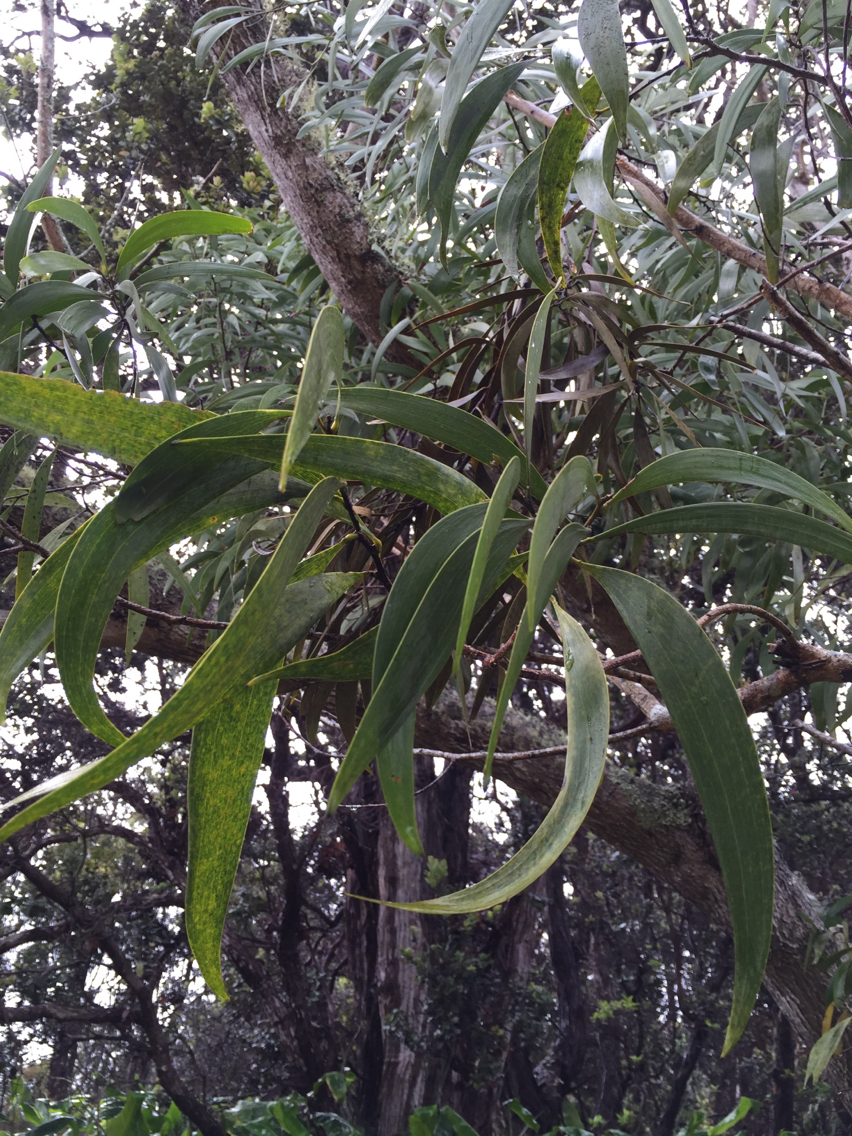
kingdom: Plantae
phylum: Tracheophyta
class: Magnoliopsida
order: Fabales
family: Fabaceae
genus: Acacia
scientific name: Acacia koa
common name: Gray koa
